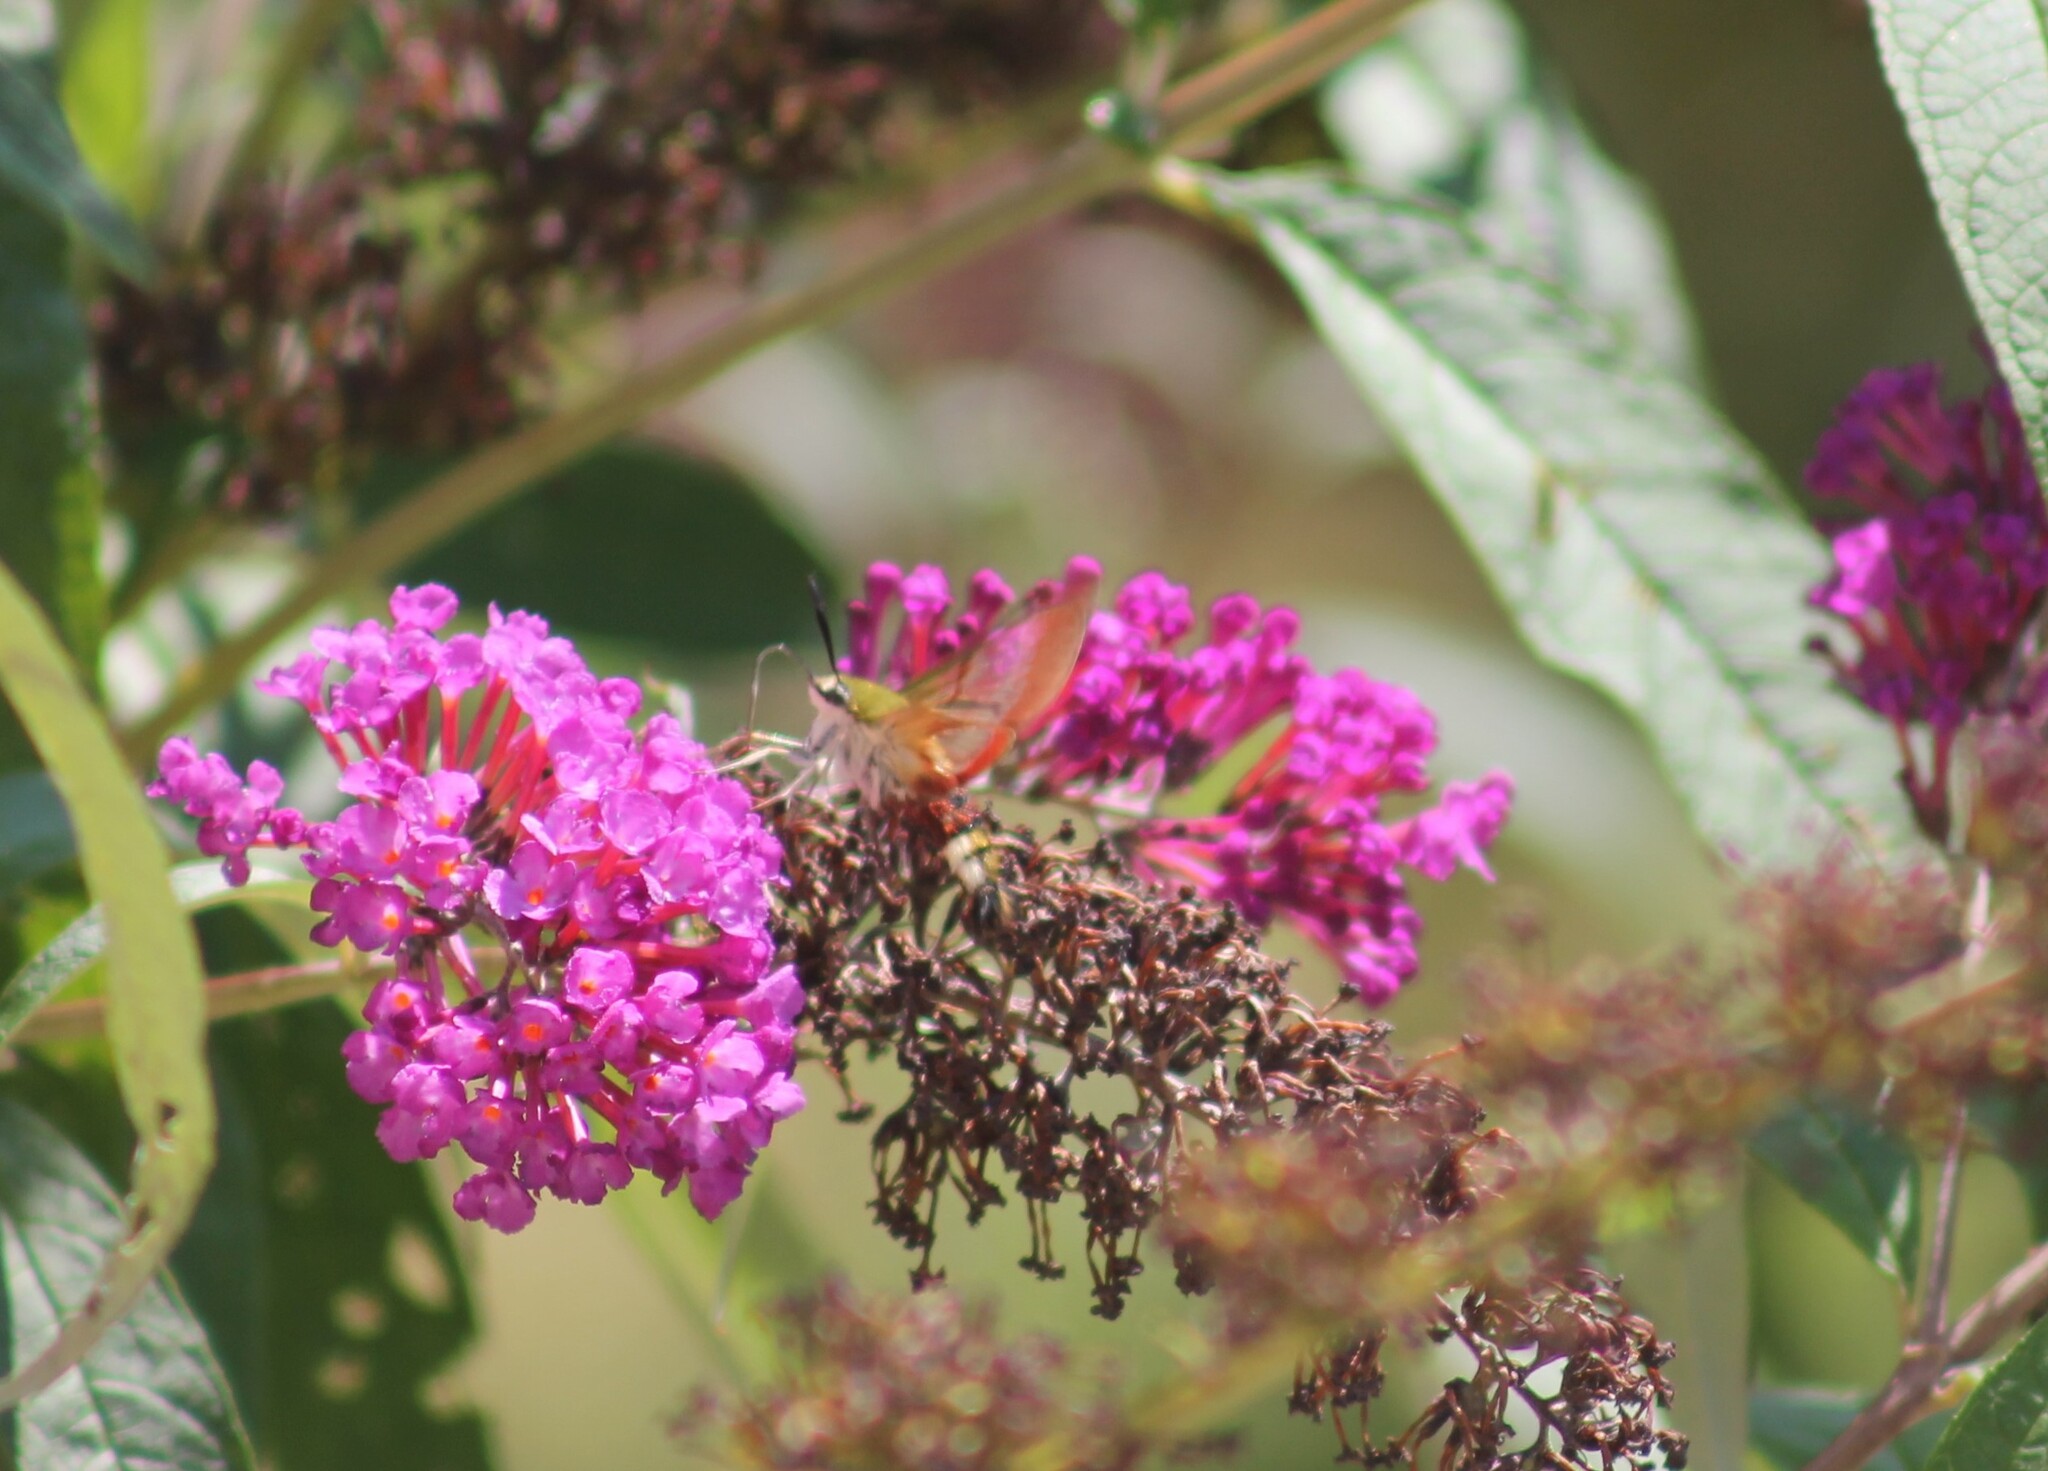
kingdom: Animalia
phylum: Arthropoda
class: Insecta
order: Lepidoptera
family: Sphingidae
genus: Hemaris
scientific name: Hemaris fuciformis
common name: Broad-bordered bee hawk-moth
